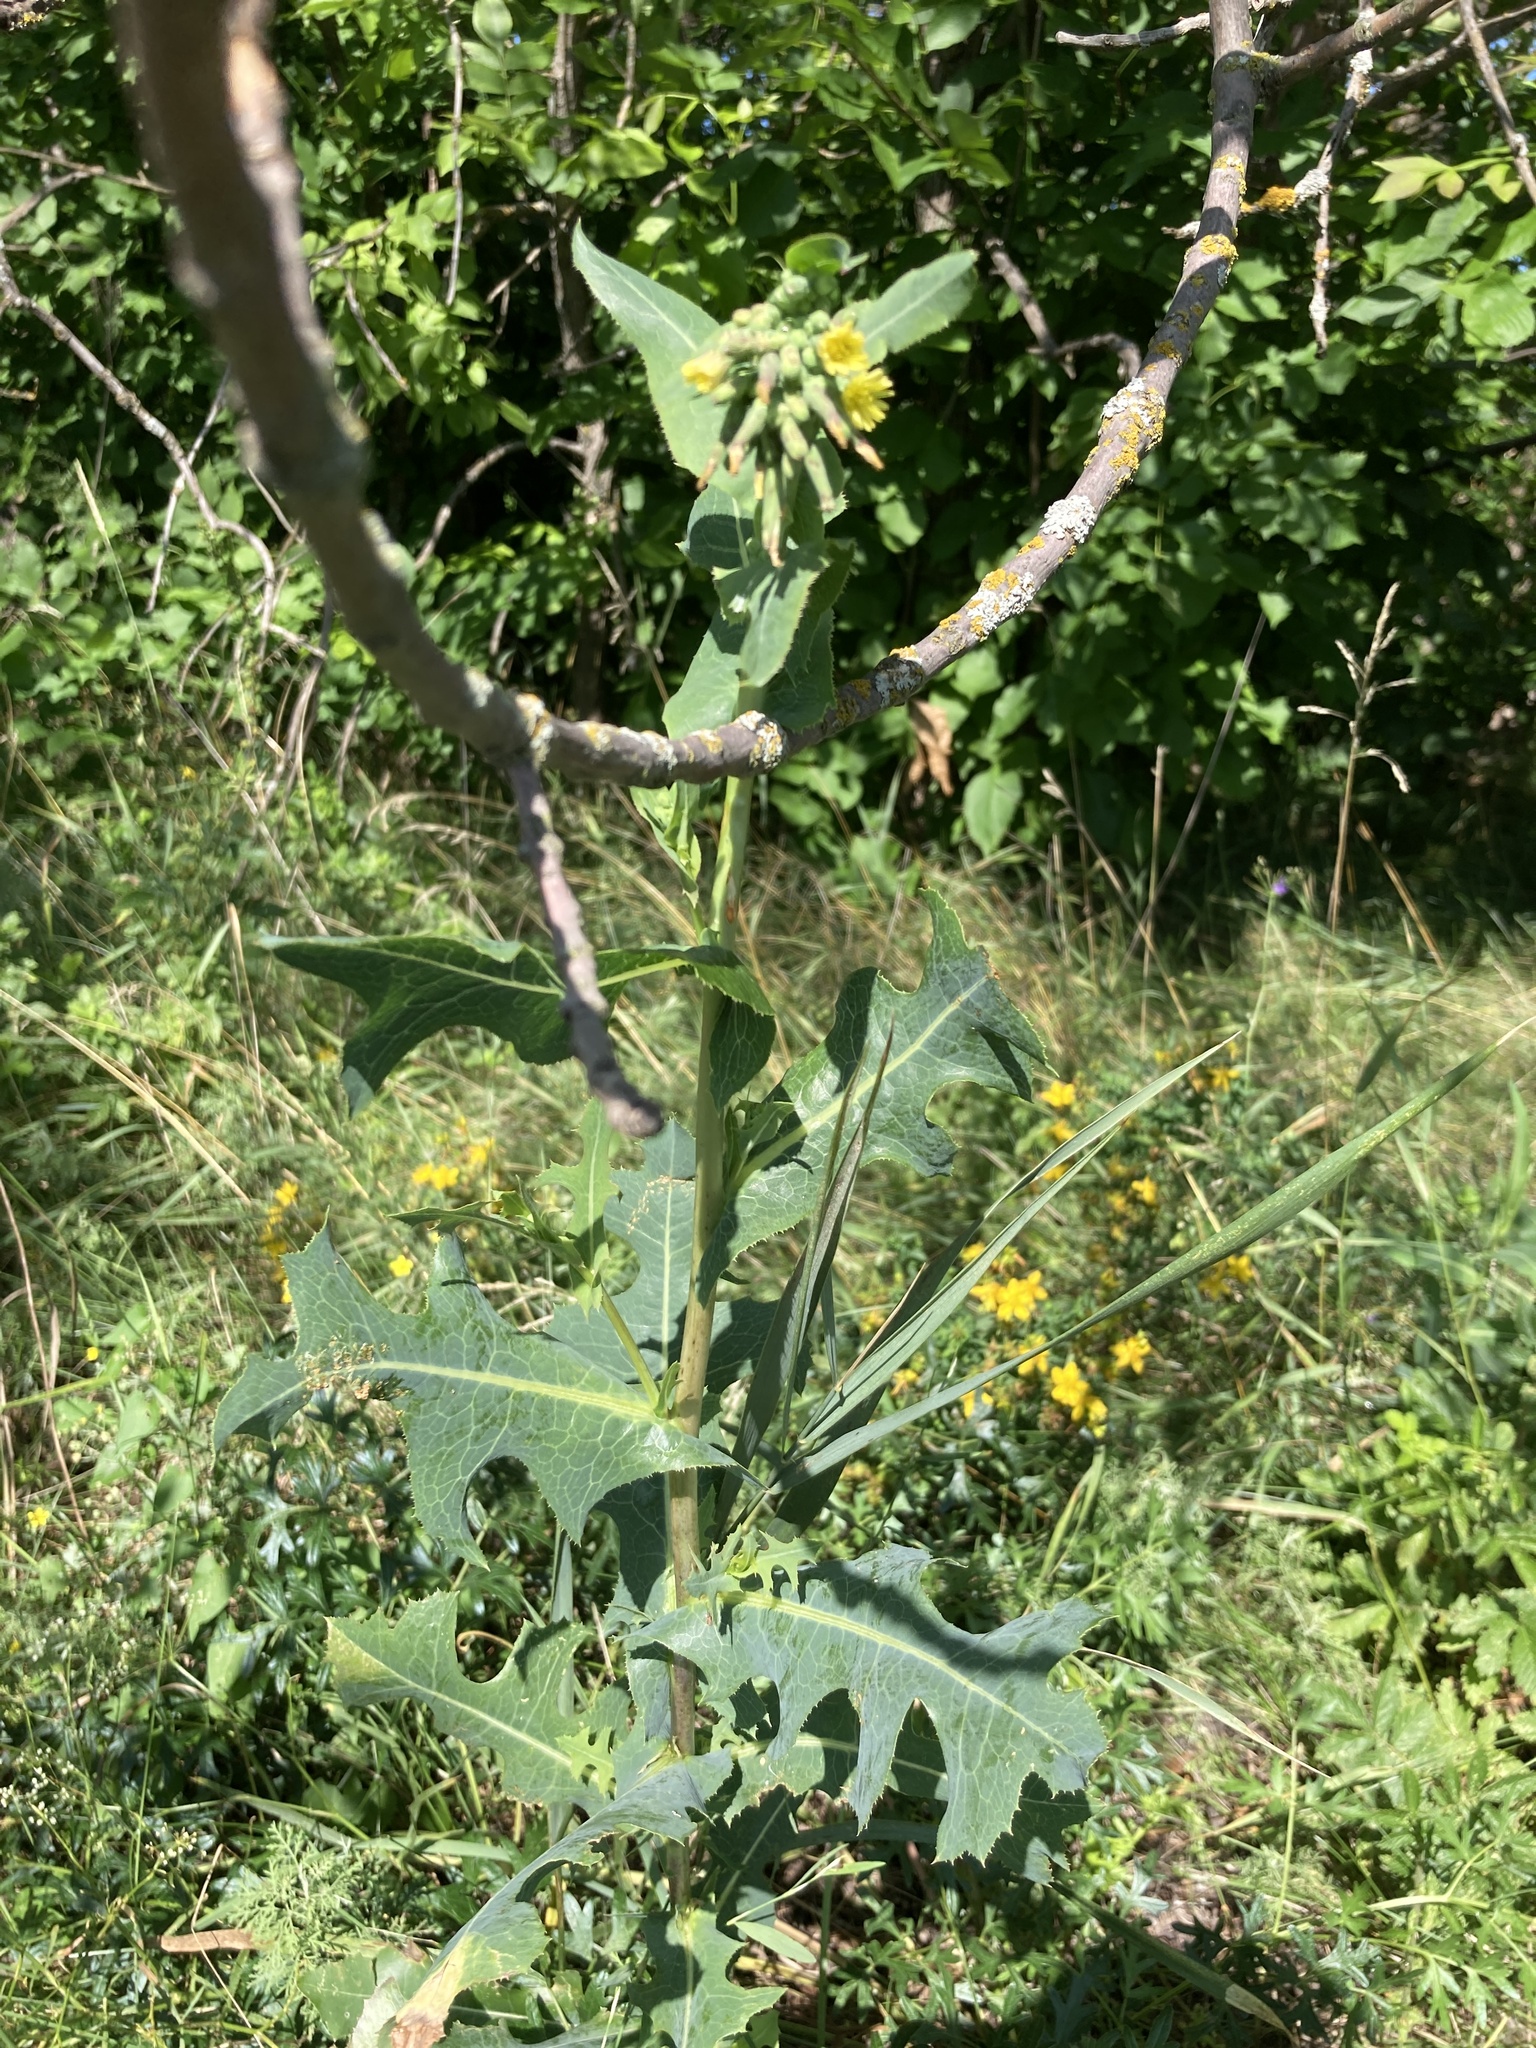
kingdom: Plantae
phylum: Tracheophyta
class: Magnoliopsida
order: Asterales
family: Asteraceae
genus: Lactuca
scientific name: Lactuca serriola
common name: Prickly lettuce
